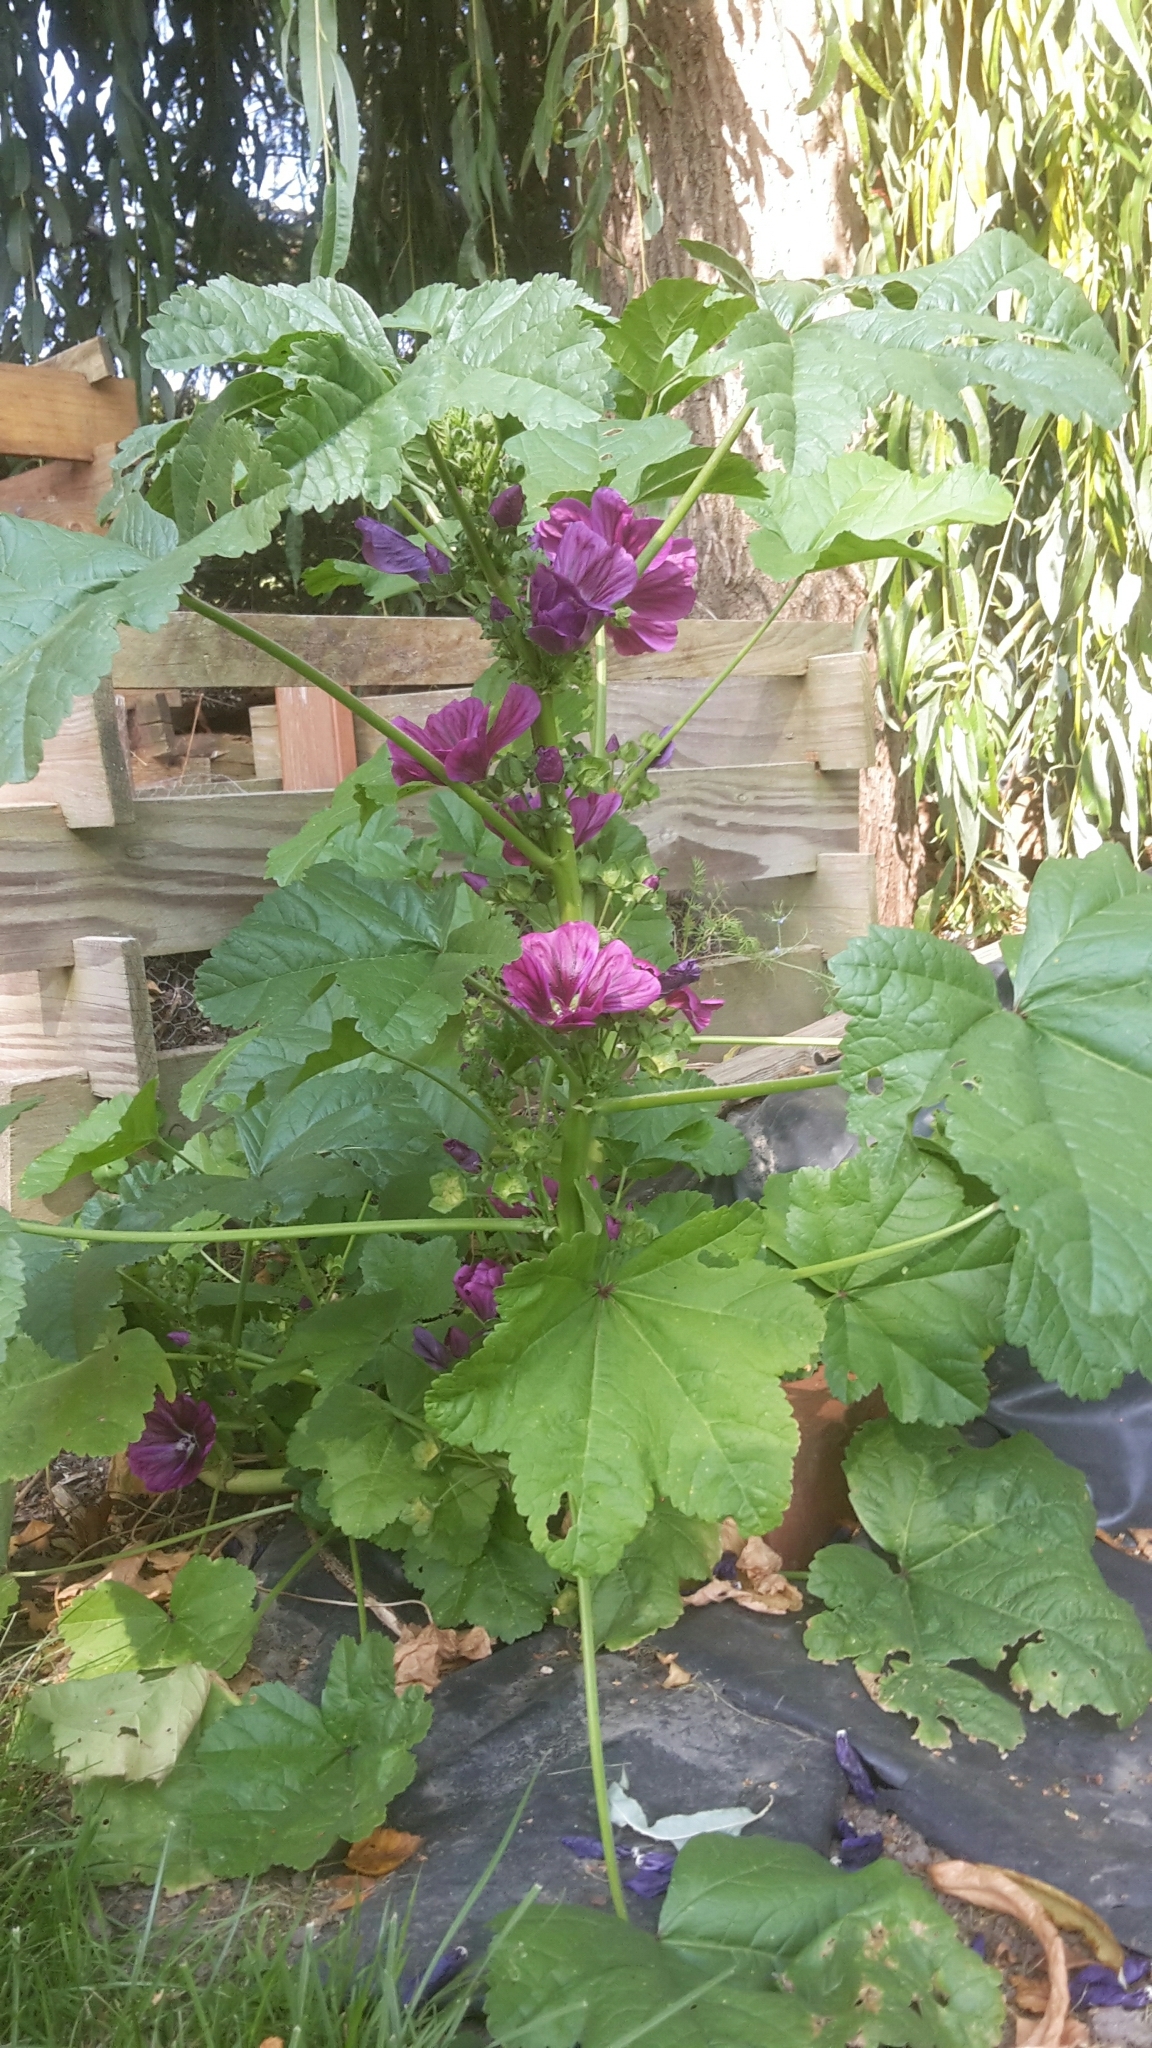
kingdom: Plantae
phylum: Tracheophyta
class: Magnoliopsida
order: Malvales
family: Malvaceae
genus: Malva
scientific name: Malva sylvestris
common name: Common mallow
